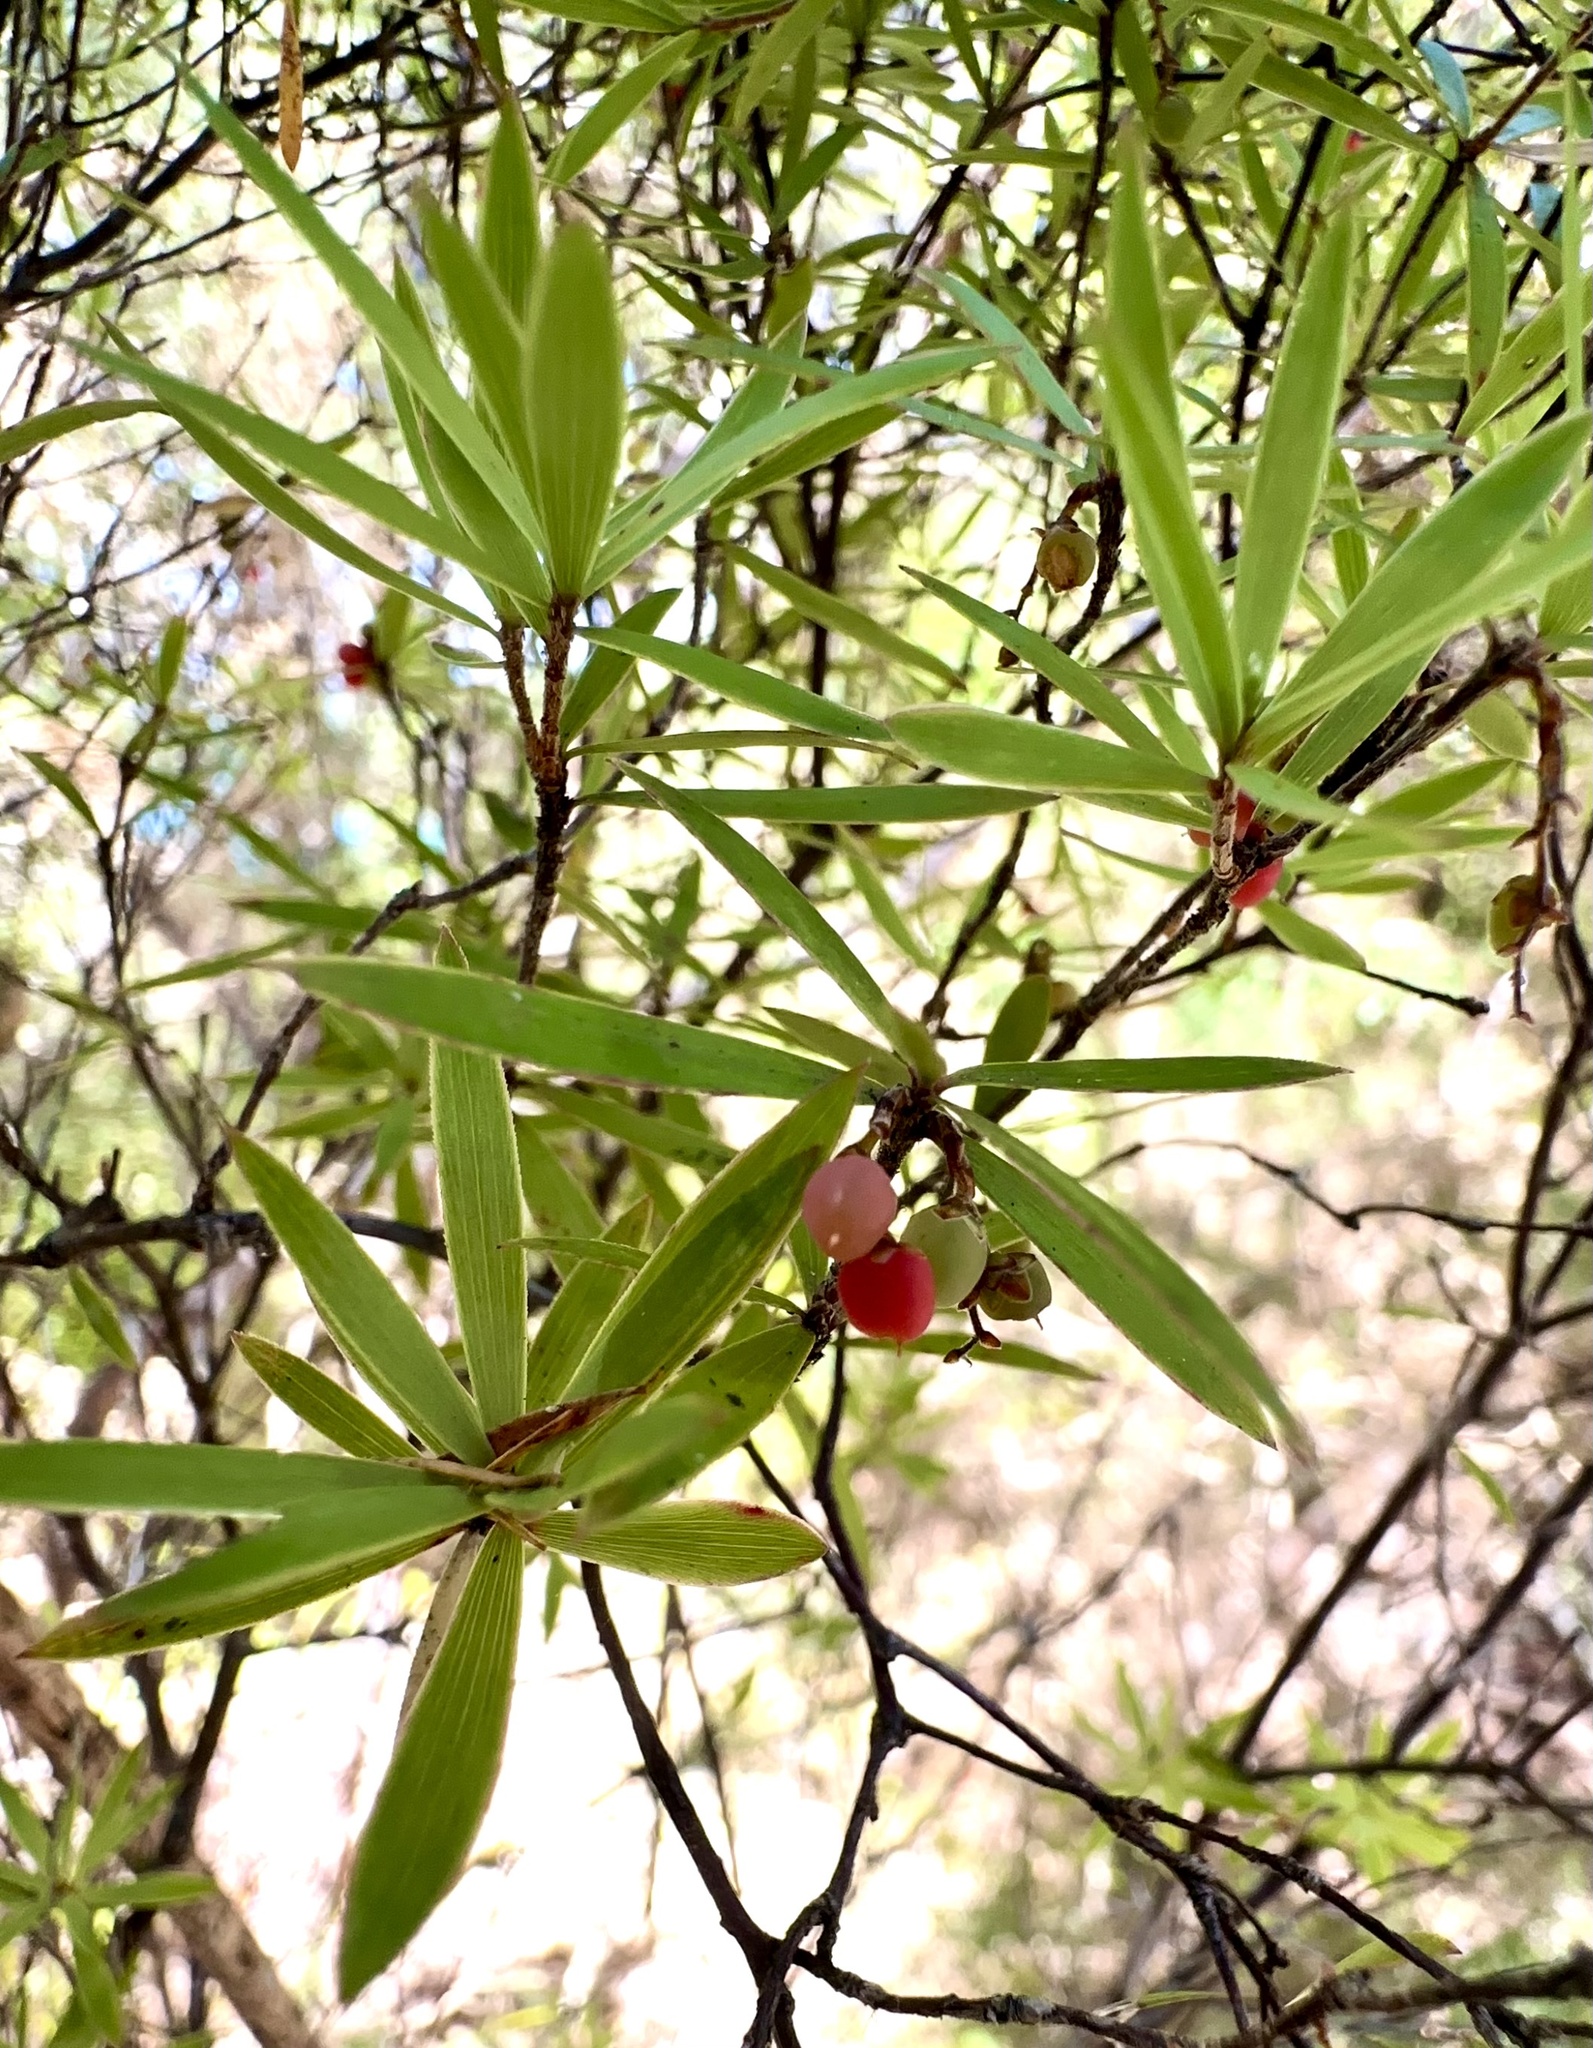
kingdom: Plantae
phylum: Tracheophyta
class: Magnoliopsida
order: Ericales
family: Ericaceae
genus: Leucopogon
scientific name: Leucopogon fasciculatus
